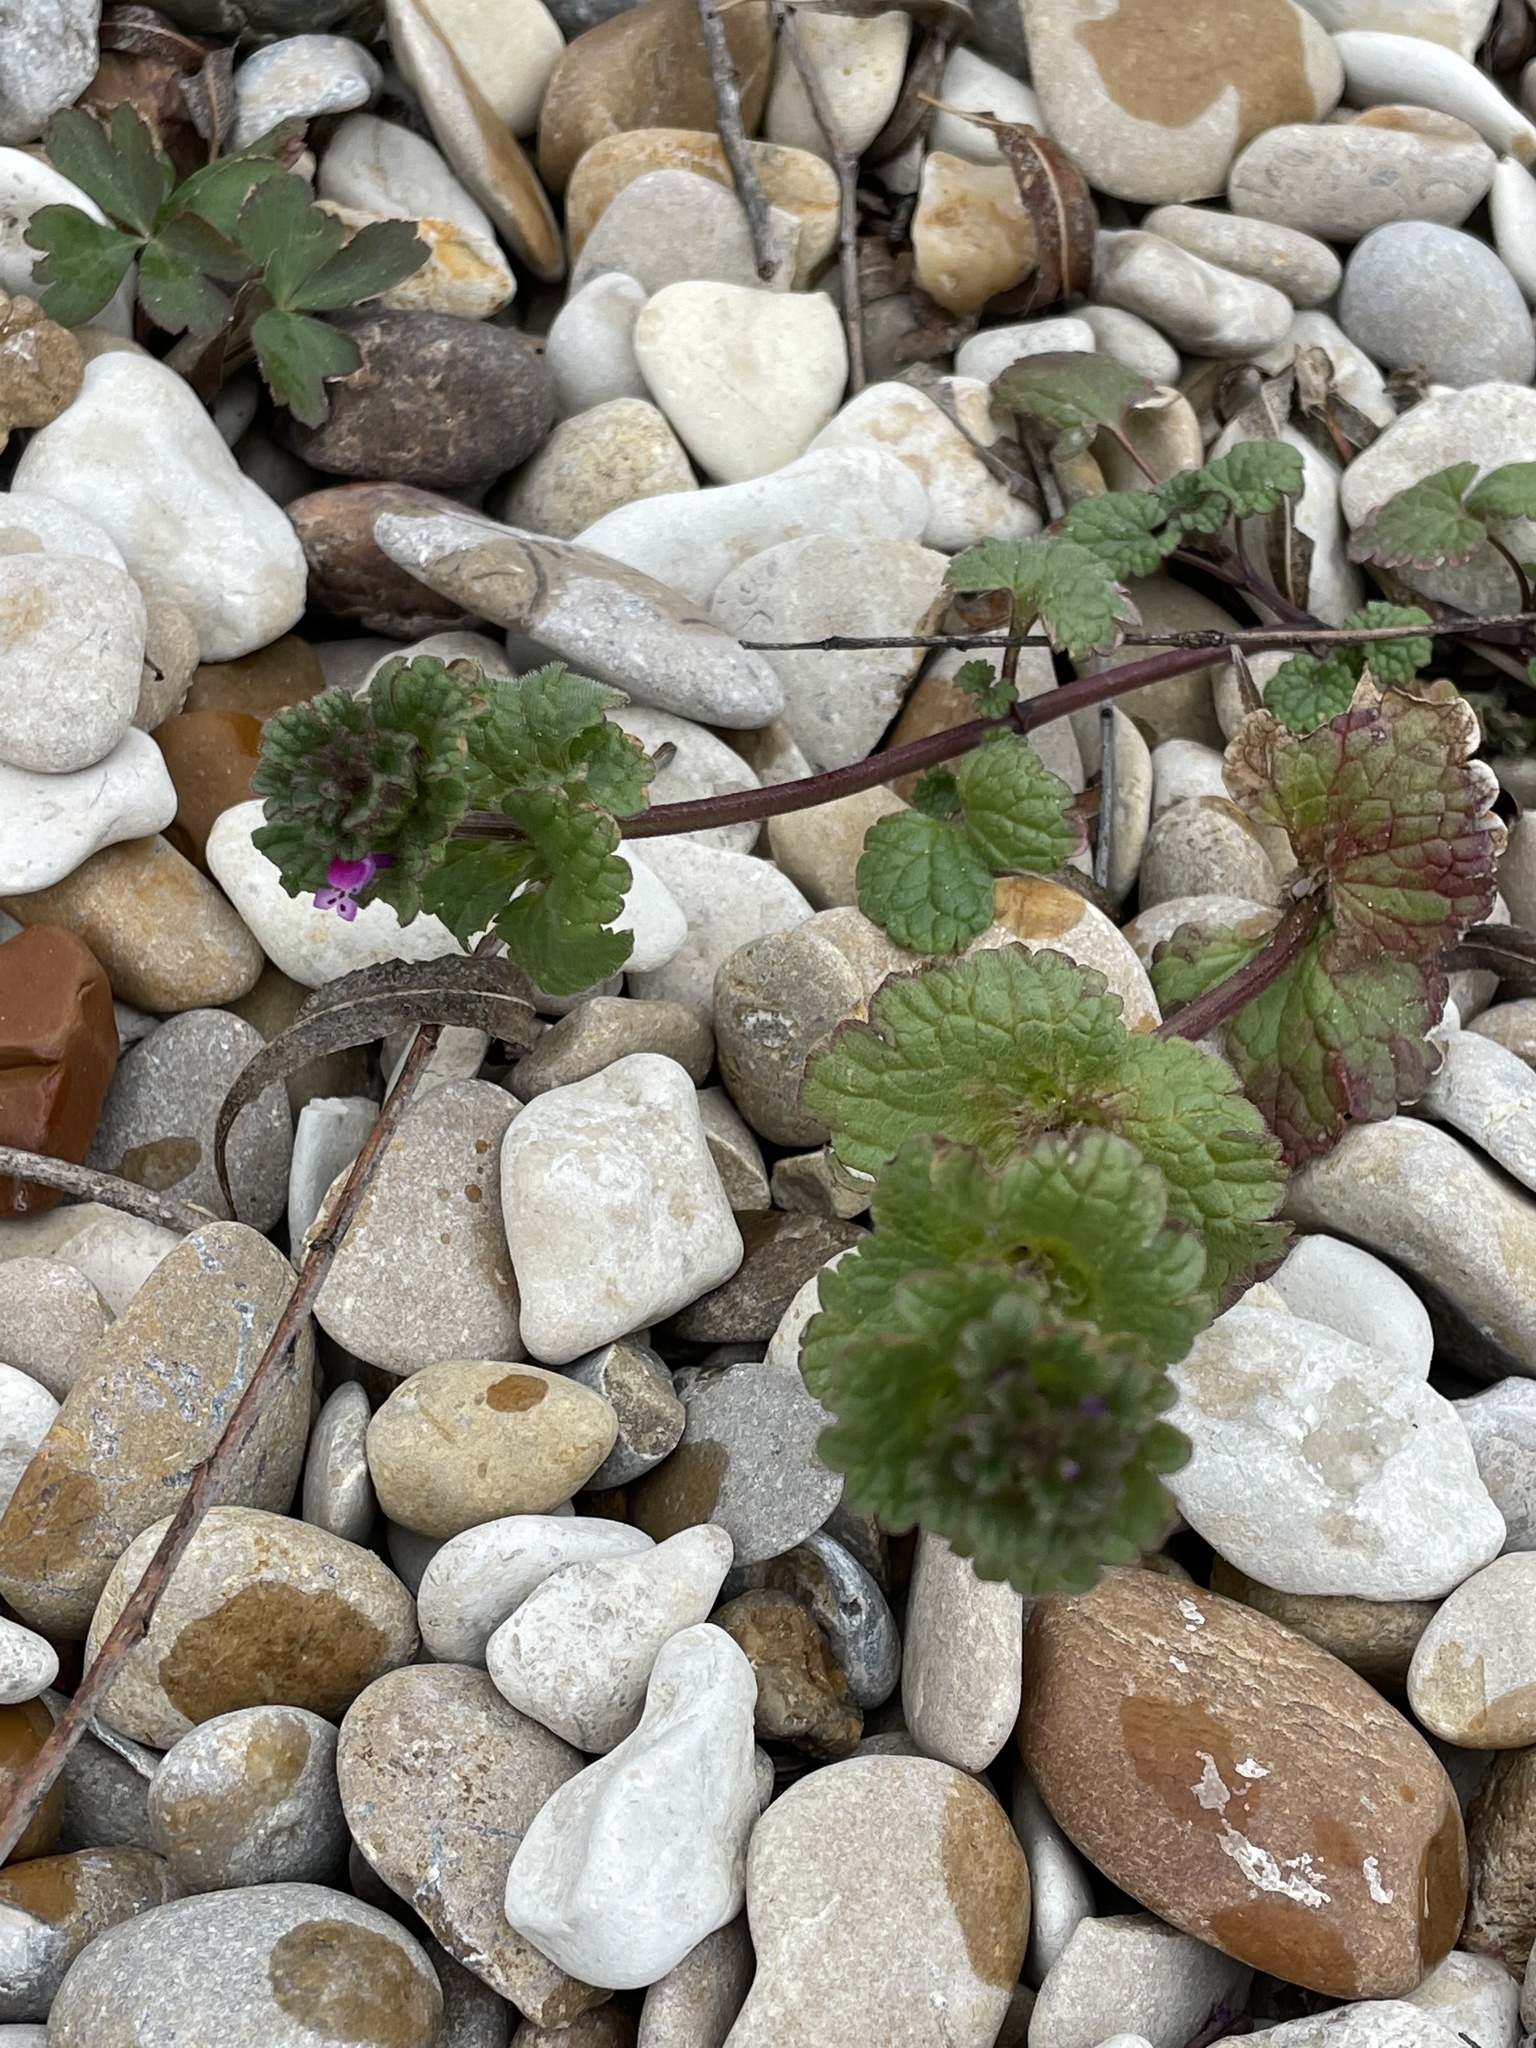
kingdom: Plantae
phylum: Tracheophyta
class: Magnoliopsida
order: Lamiales
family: Lamiaceae
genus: Lamium
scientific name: Lamium amplexicaule
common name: Henbit dead-nettle
